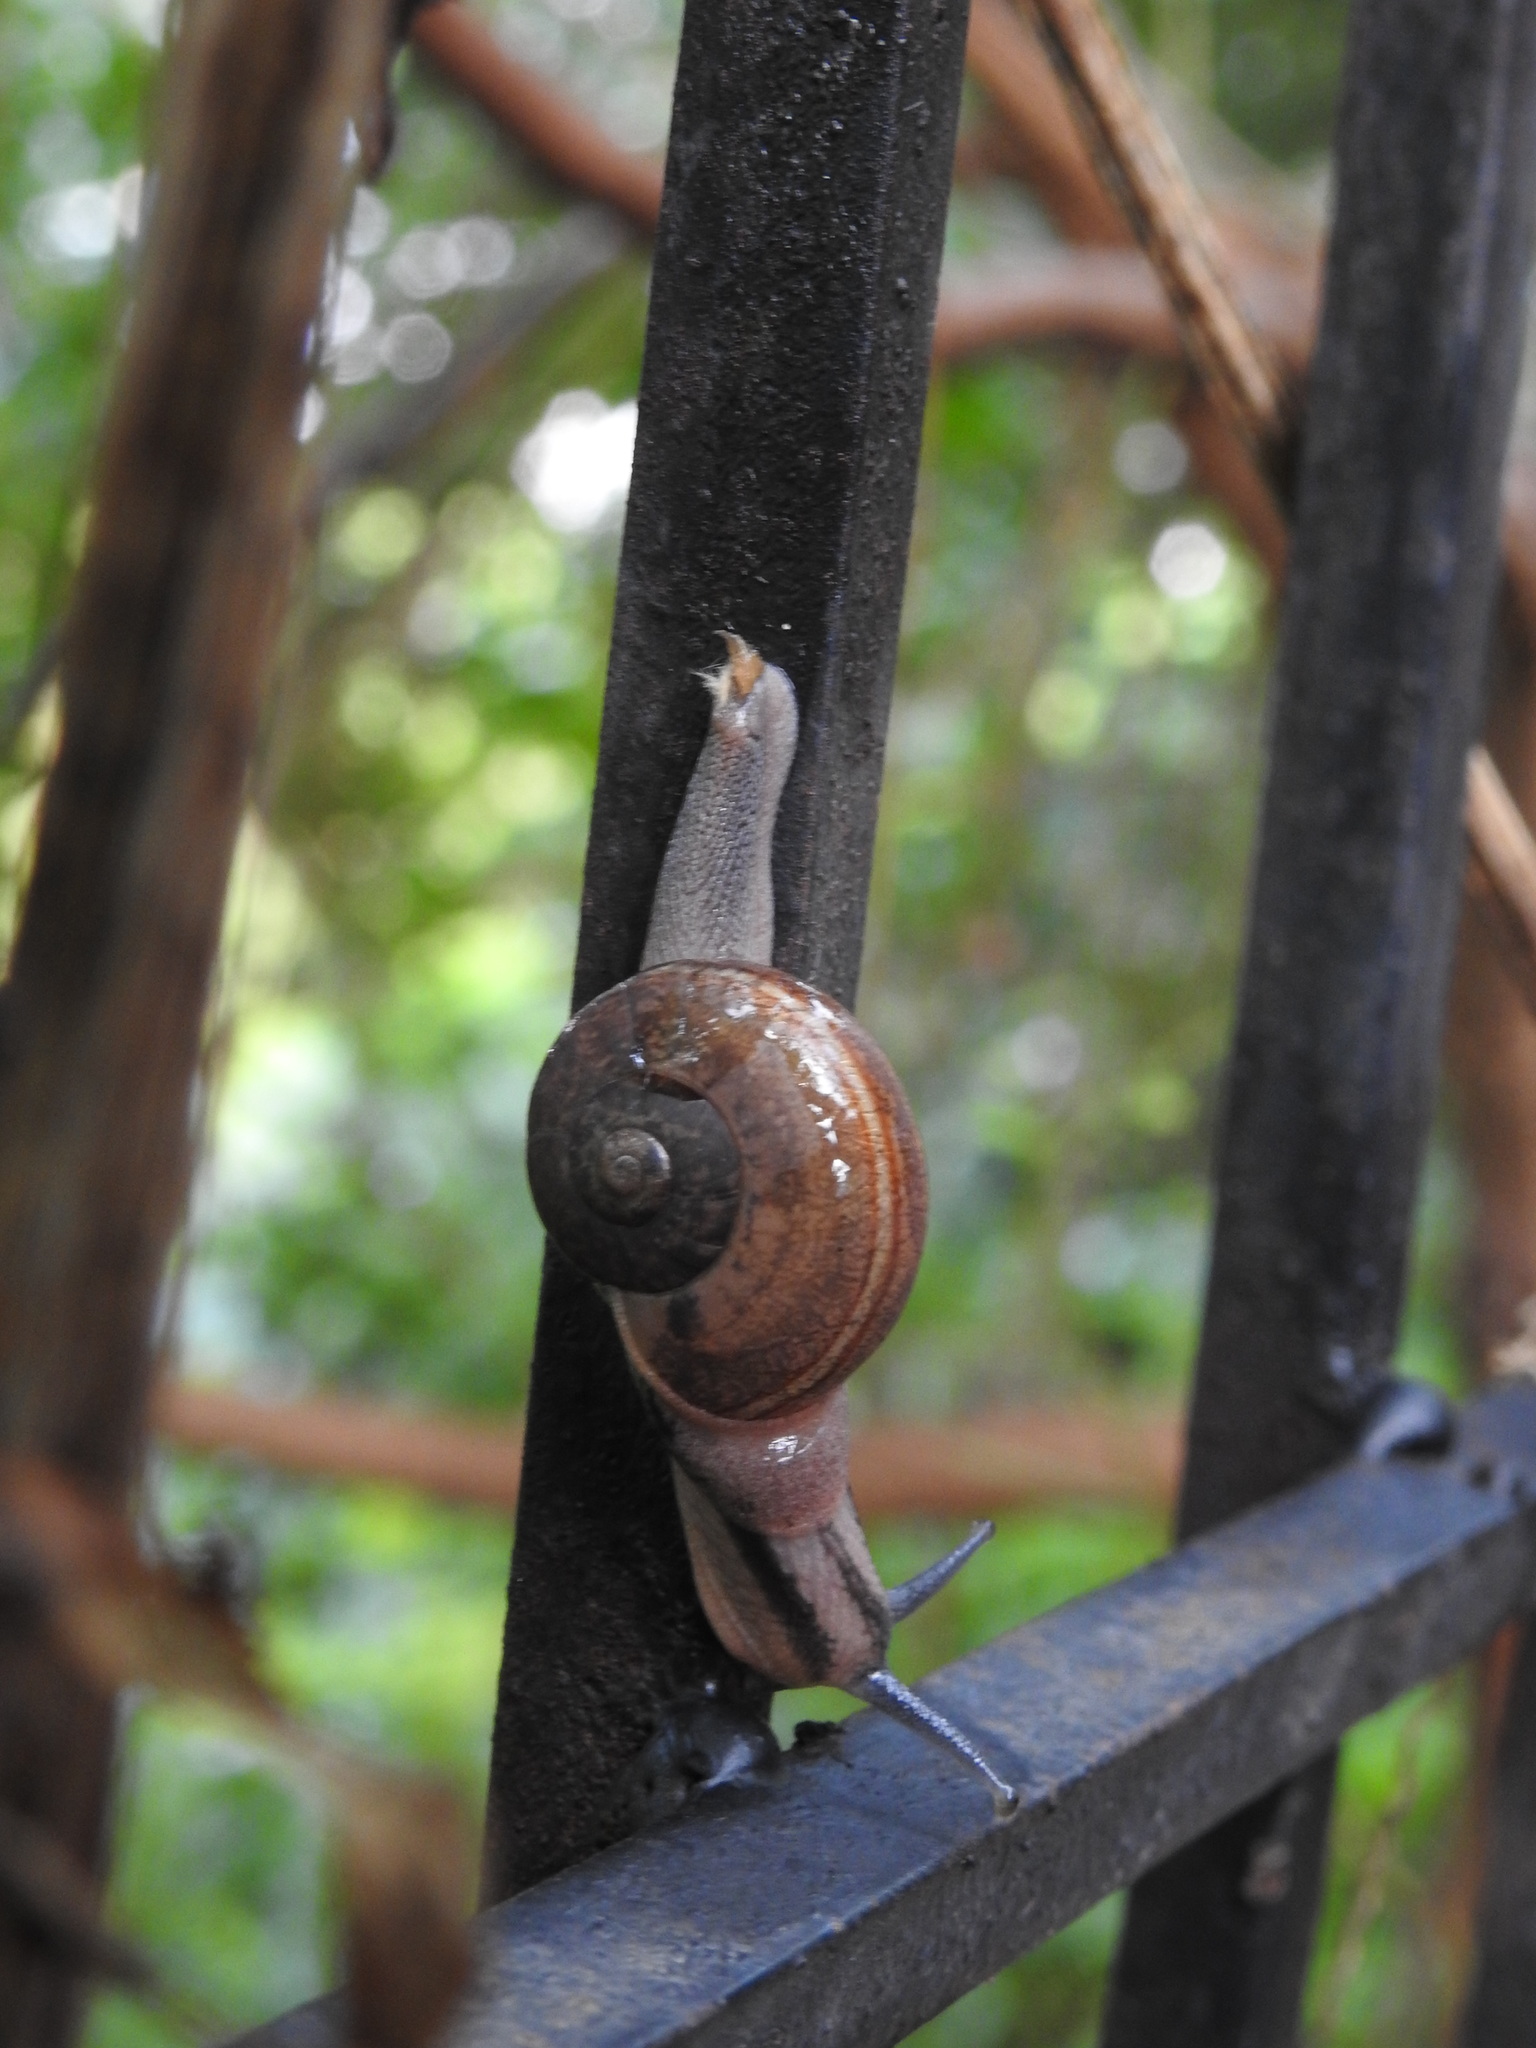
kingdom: Animalia
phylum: Mollusca
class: Gastropoda
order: Stylommatophora
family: Ariophantidae
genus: Ariophanta
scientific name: Ariophanta exilis
